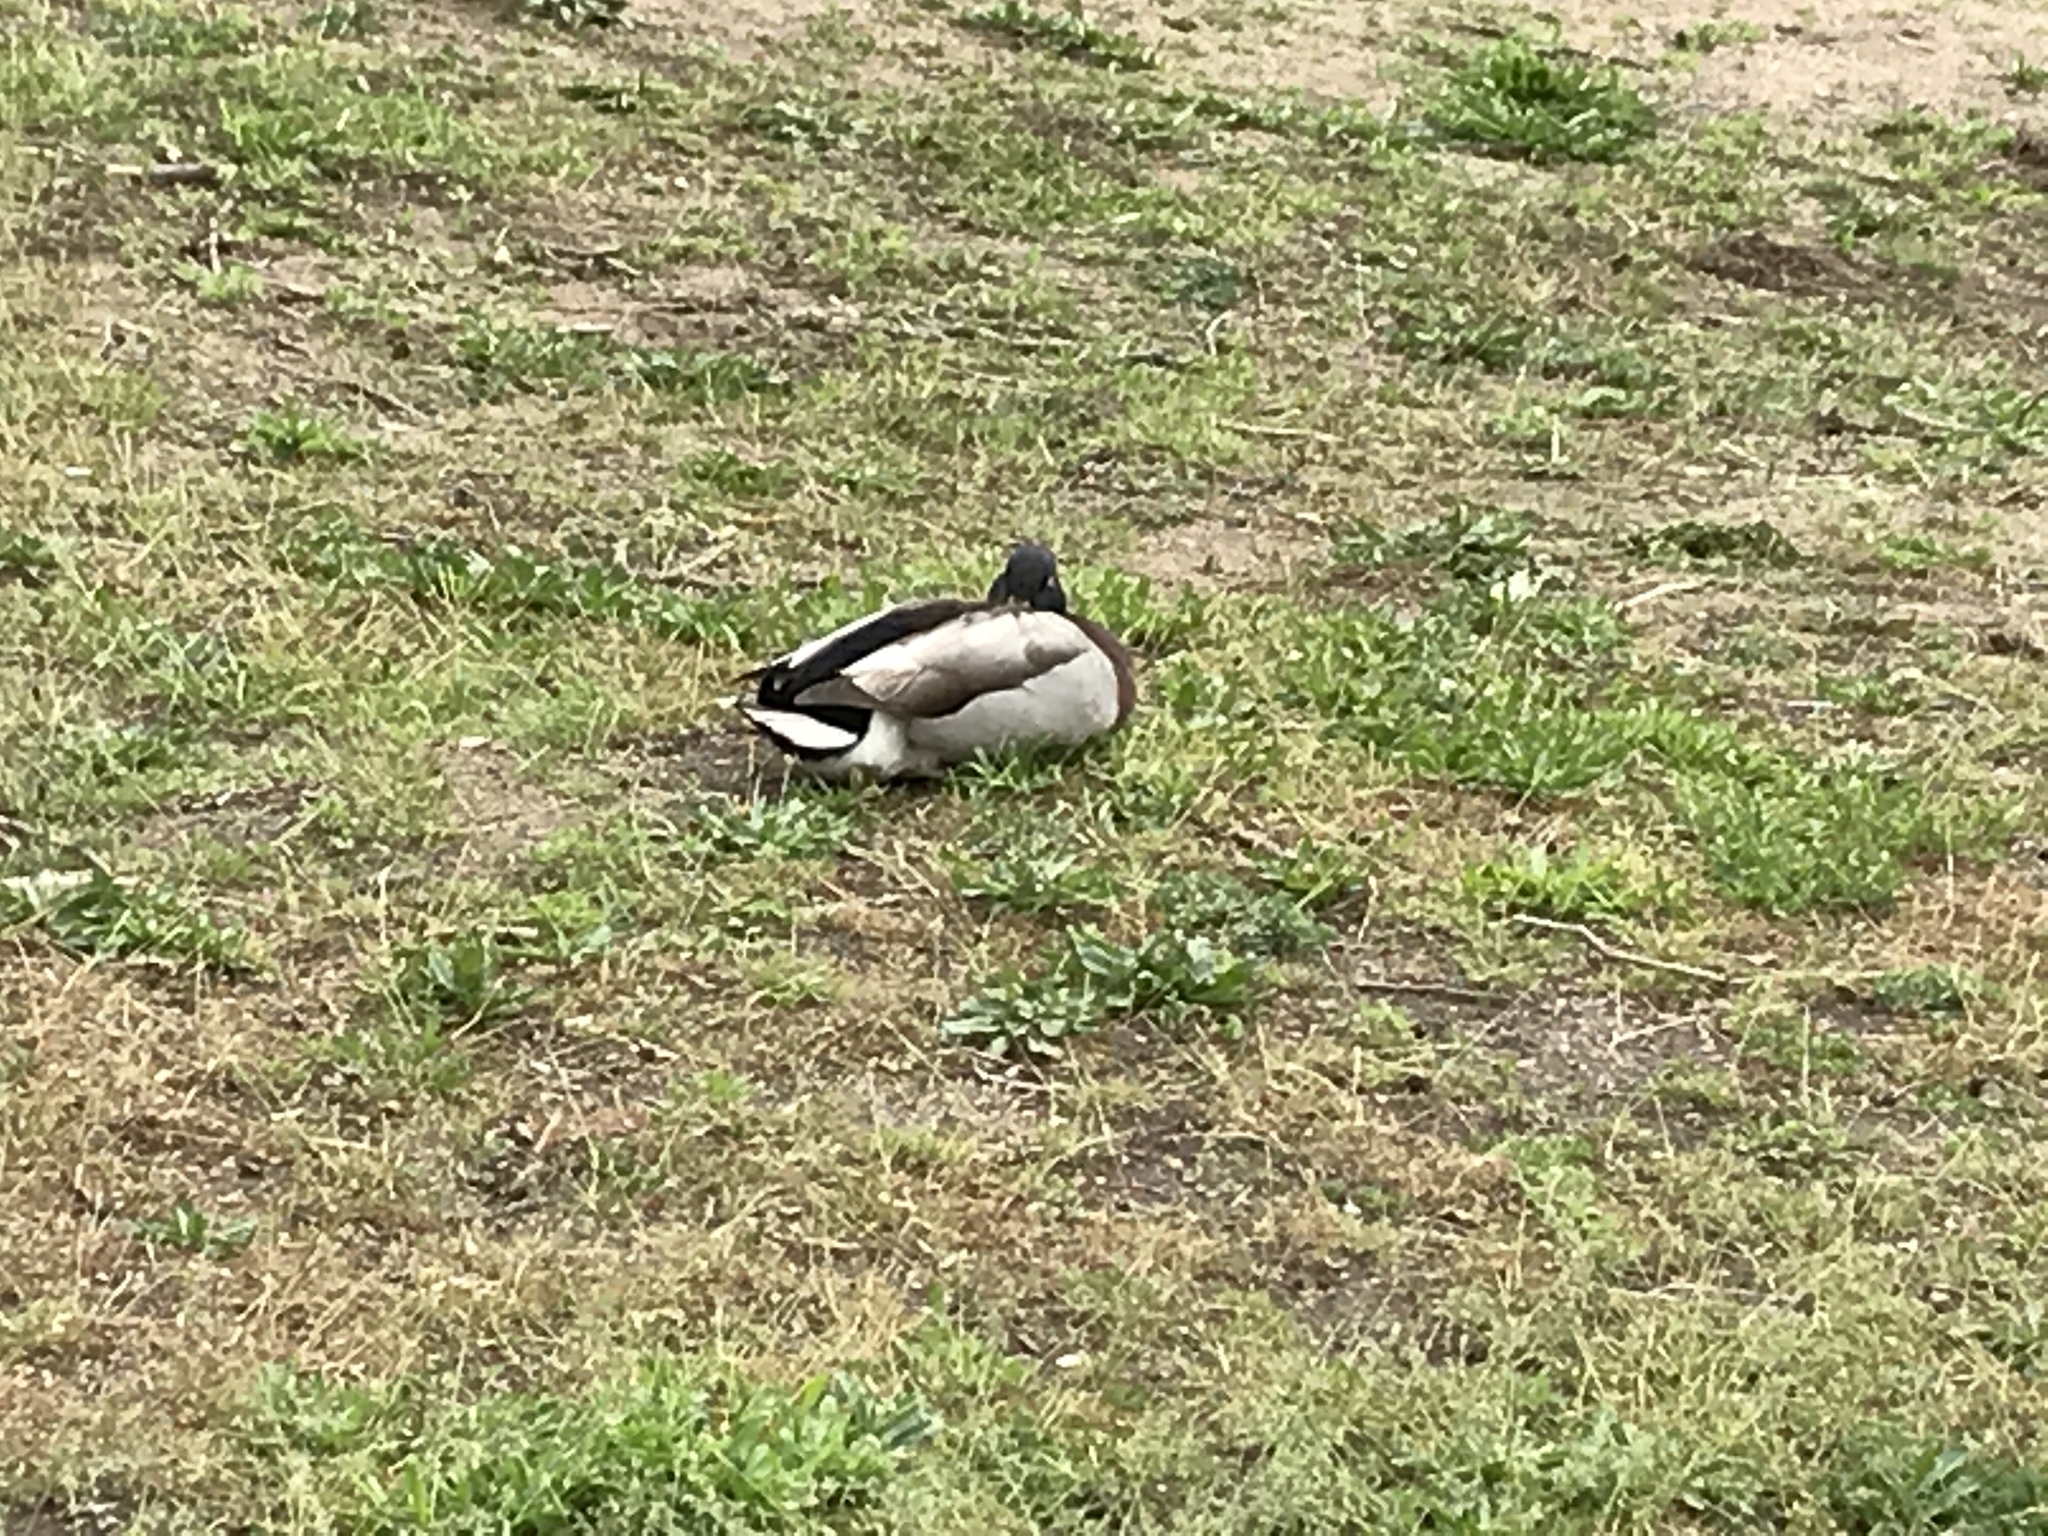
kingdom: Animalia
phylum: Chordata
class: Aves
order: Anseriformes
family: Anatidae
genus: Anas
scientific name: Anas platyrhynchos
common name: Mallard
